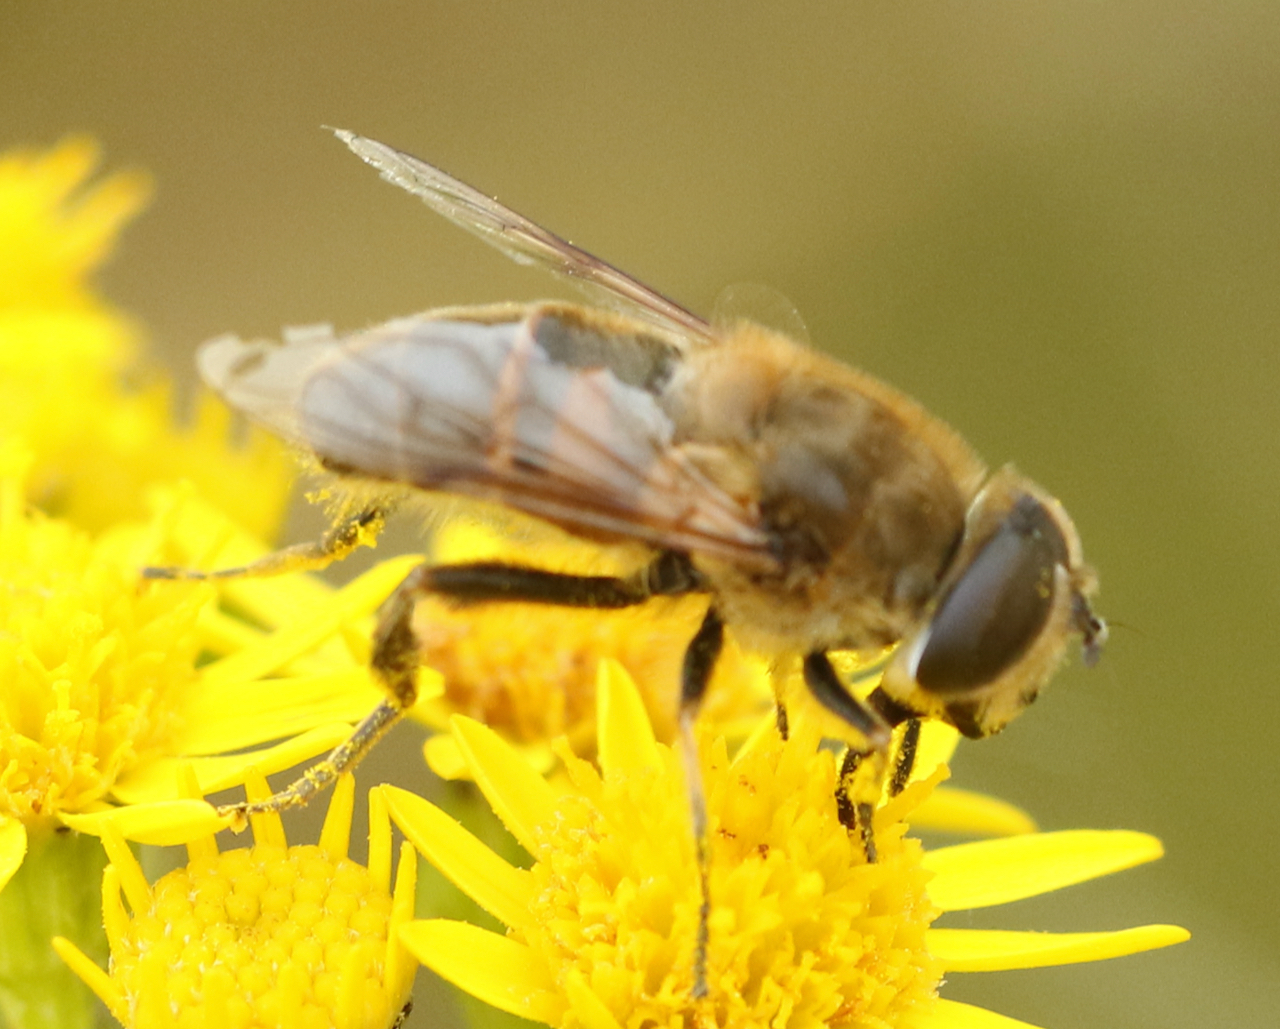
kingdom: Animalia
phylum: Arthropoda
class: Insecta
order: Diptera
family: Syrphidae
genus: Eristalis
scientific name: Eristalis tenax
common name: Drone fly
